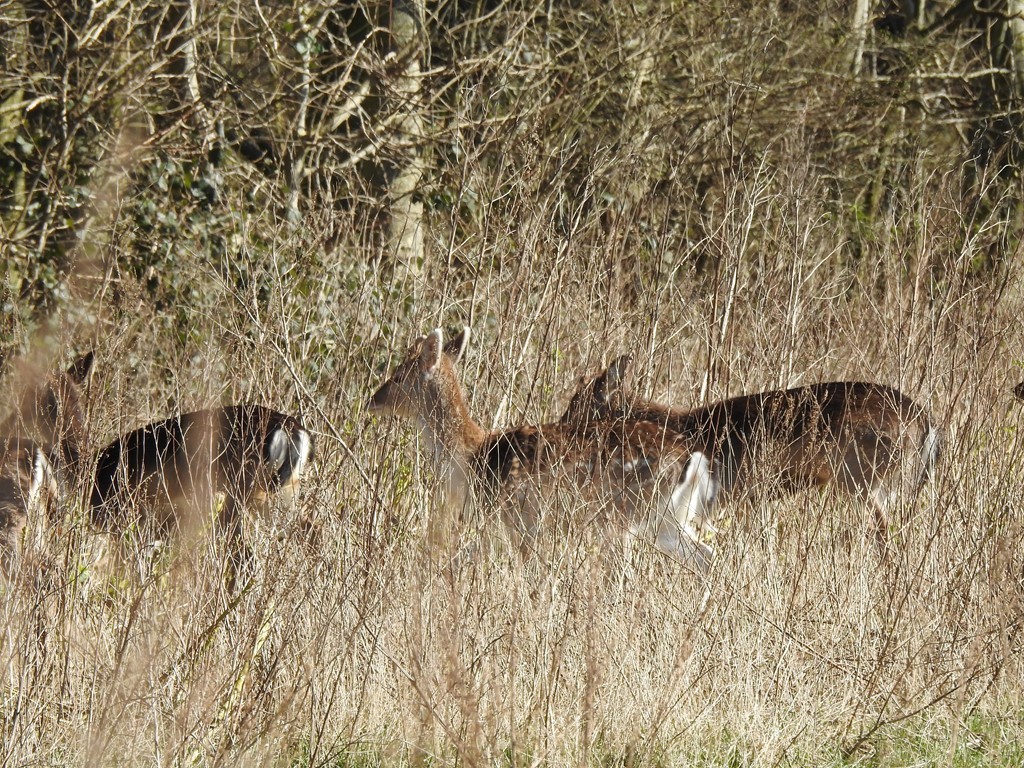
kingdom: Animalia
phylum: Chordata
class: Mammalia
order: Artiodactyla
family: Cervidae
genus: Dama
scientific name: Dama dama
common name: Fallow deer
